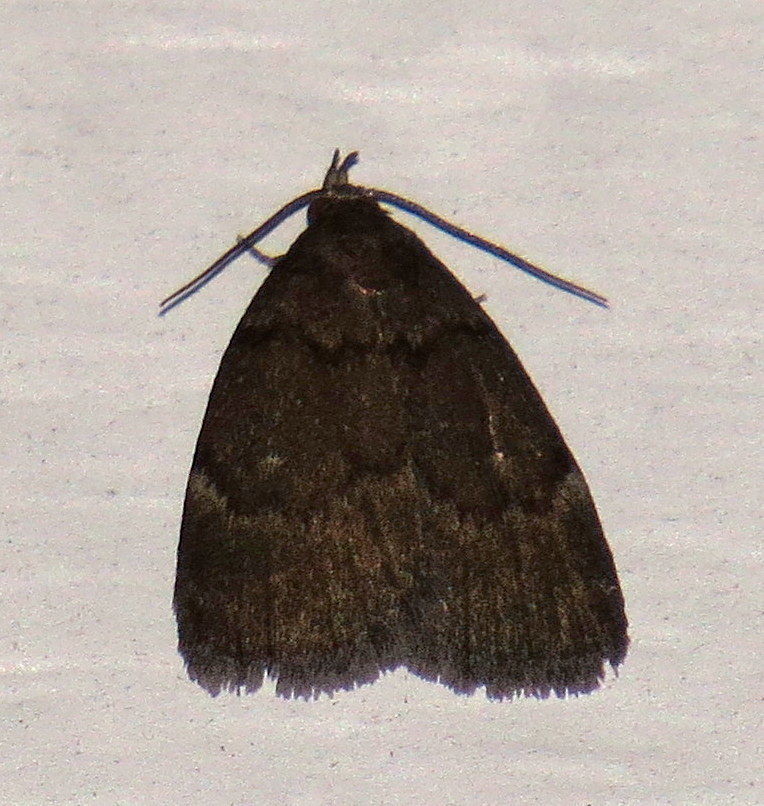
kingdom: Animalia
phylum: Arthropoda
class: Insecta
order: Lepidoptera
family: Erebidae
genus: Idia
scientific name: Idia rotundalis
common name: Rotund idia moth
